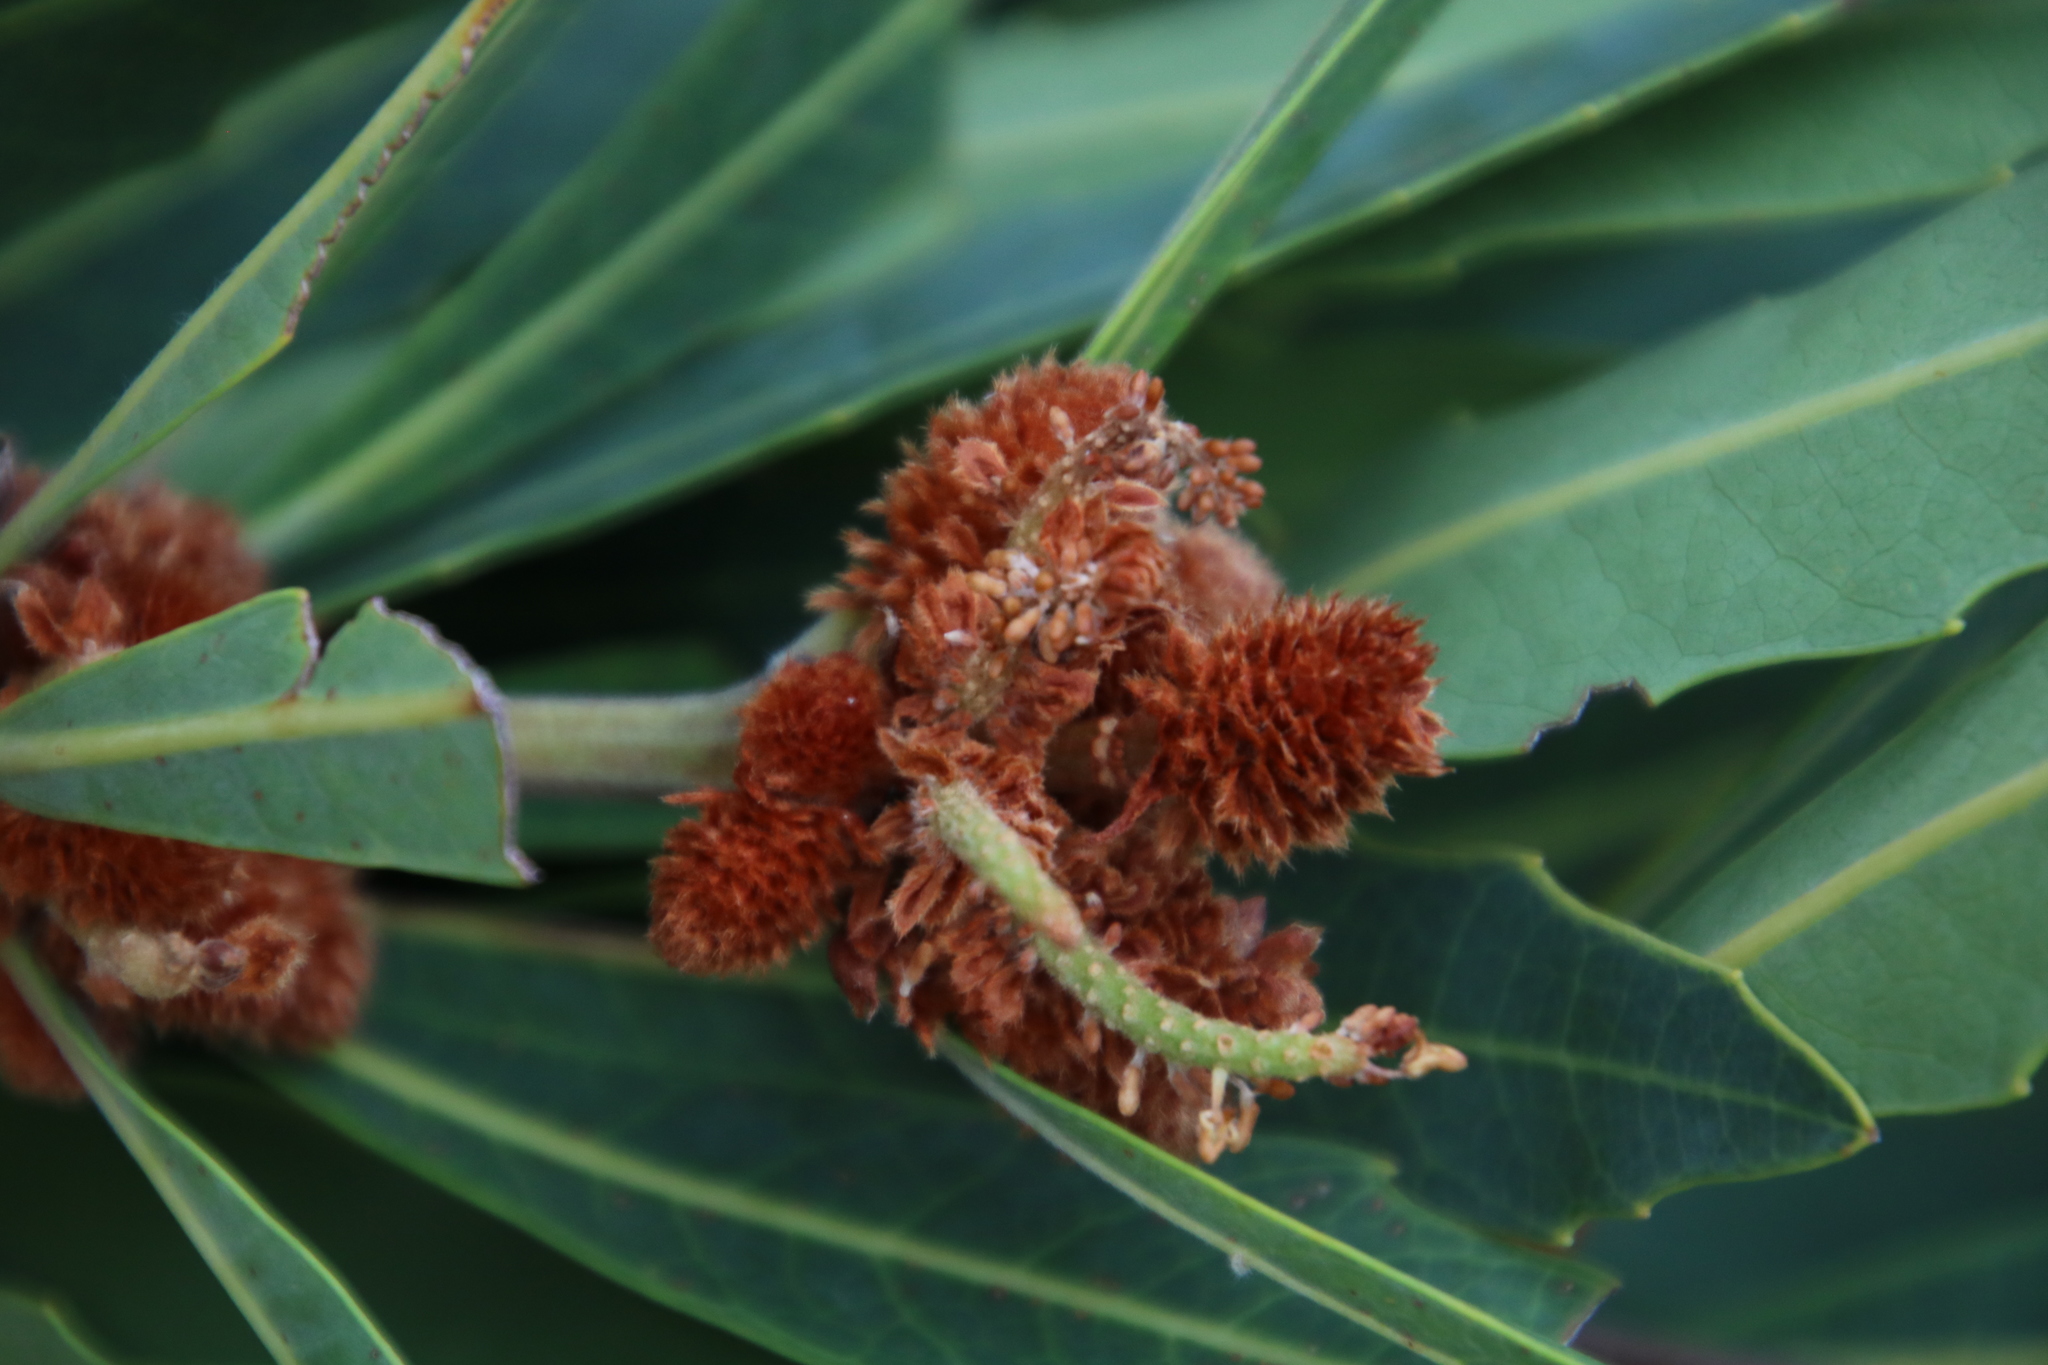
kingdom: Plantae
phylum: Tracheophyta
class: Magnoliopsida
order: Proteales
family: Proteaceae
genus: Brabejum
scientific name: Brabejum stellatifolium
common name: Wild almond
